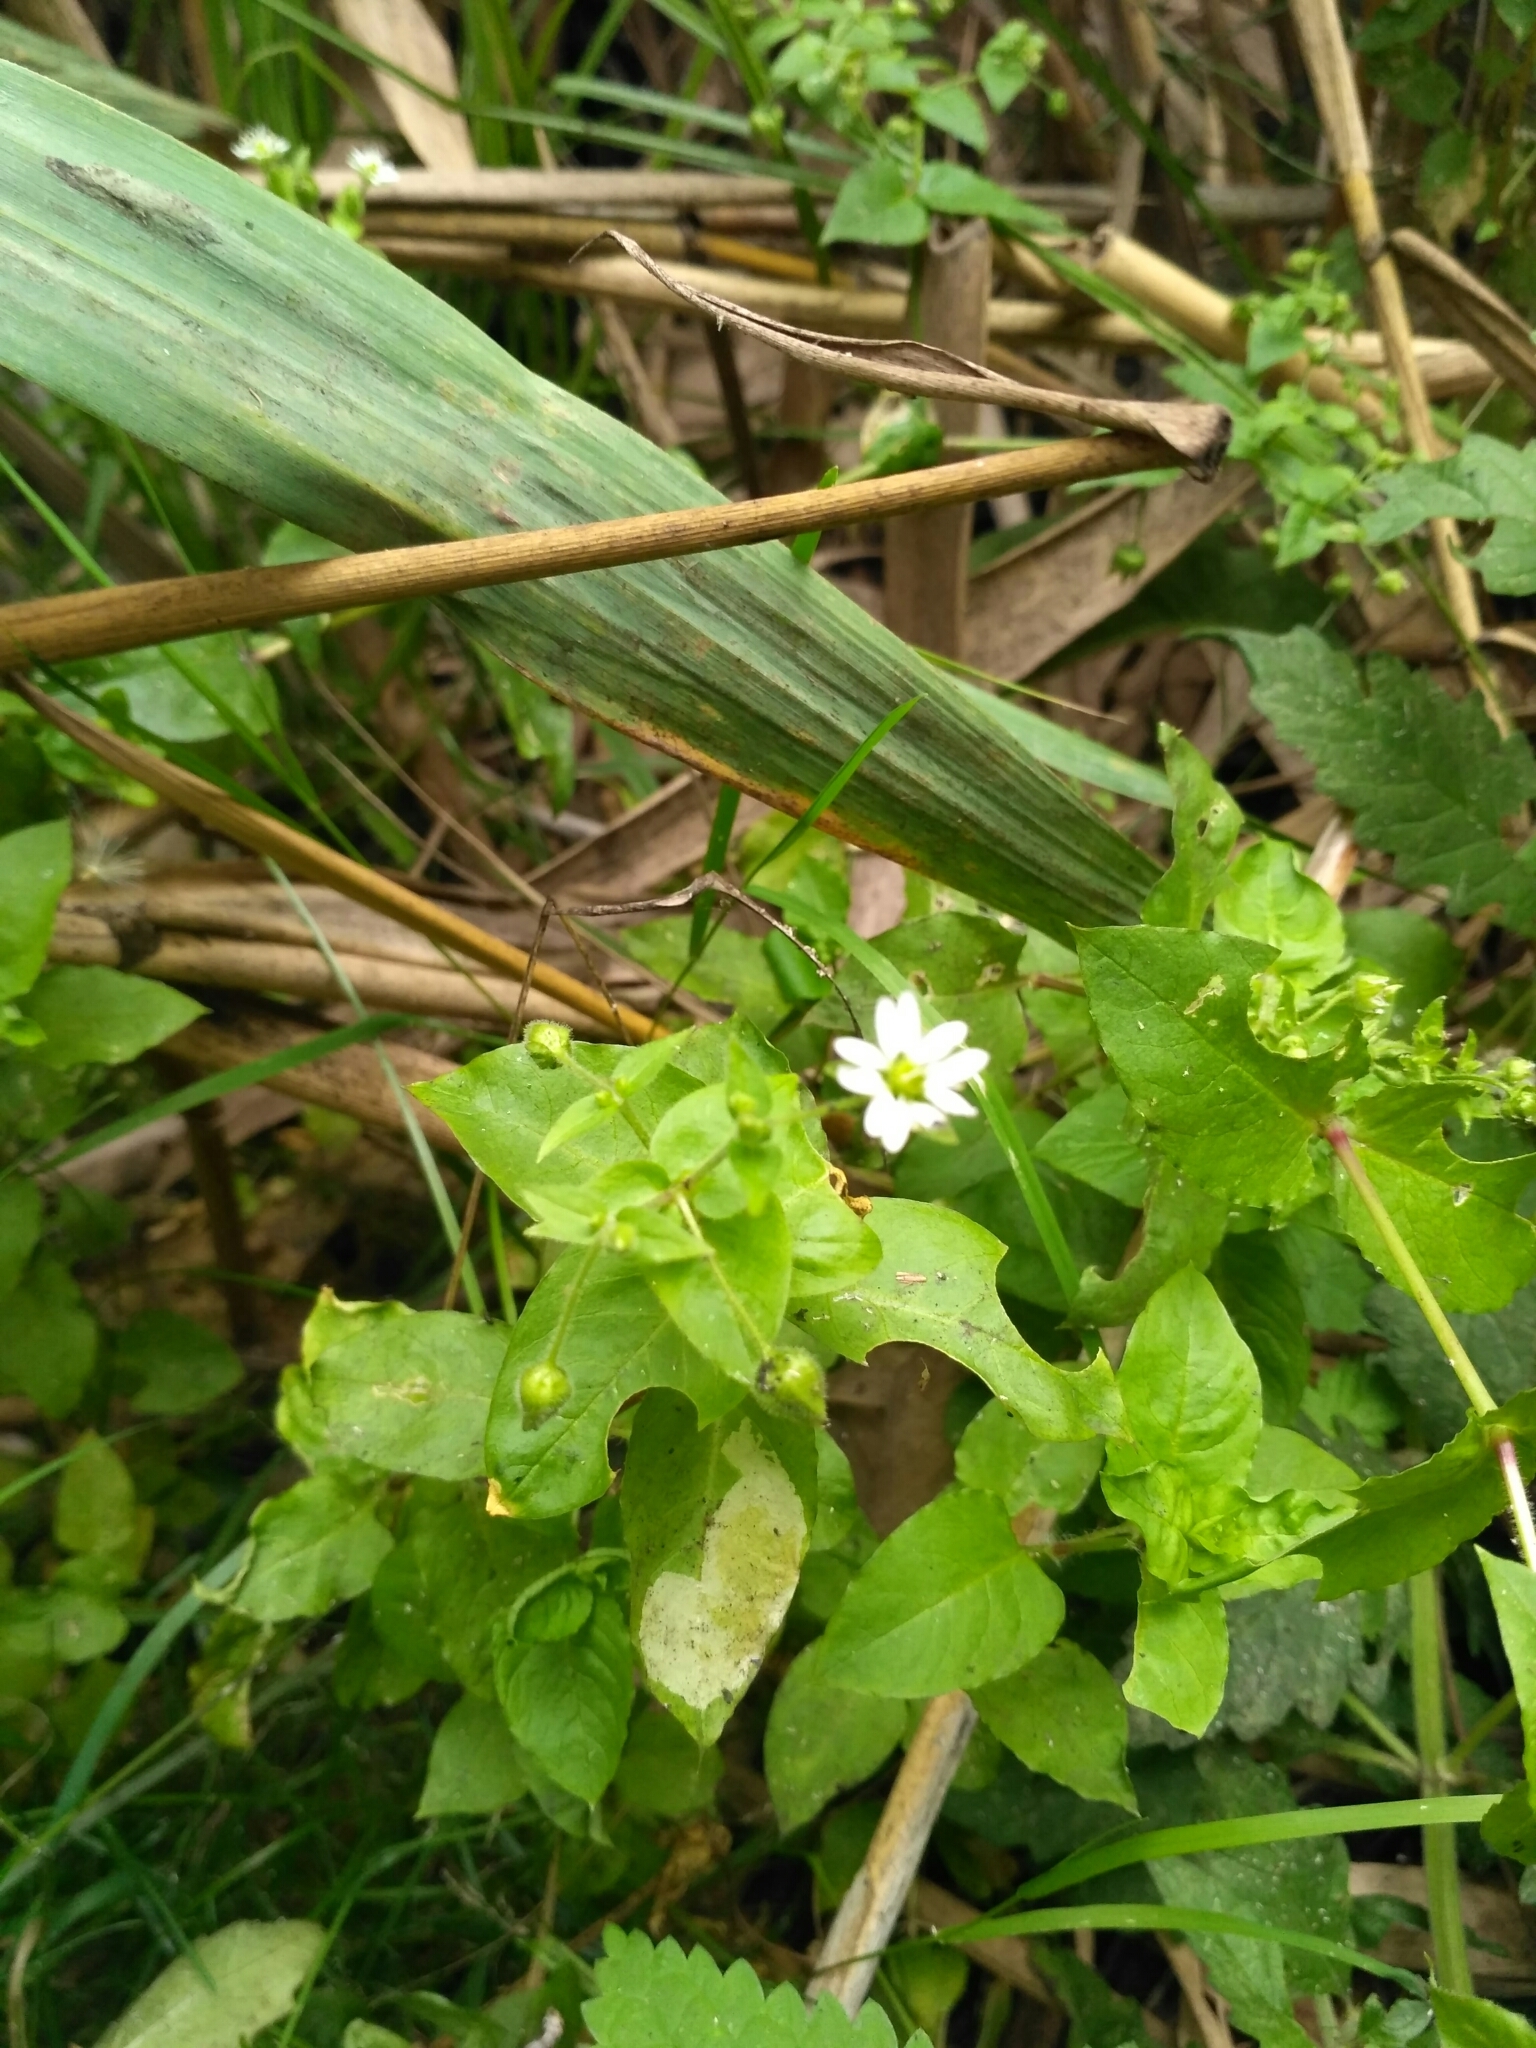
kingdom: Plantae
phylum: Tracheophyta
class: Magnoliopsida
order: Caryophyllales
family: Caryophyllaceae
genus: Stellaria
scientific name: Stellaria aquatica
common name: Water chickweed
